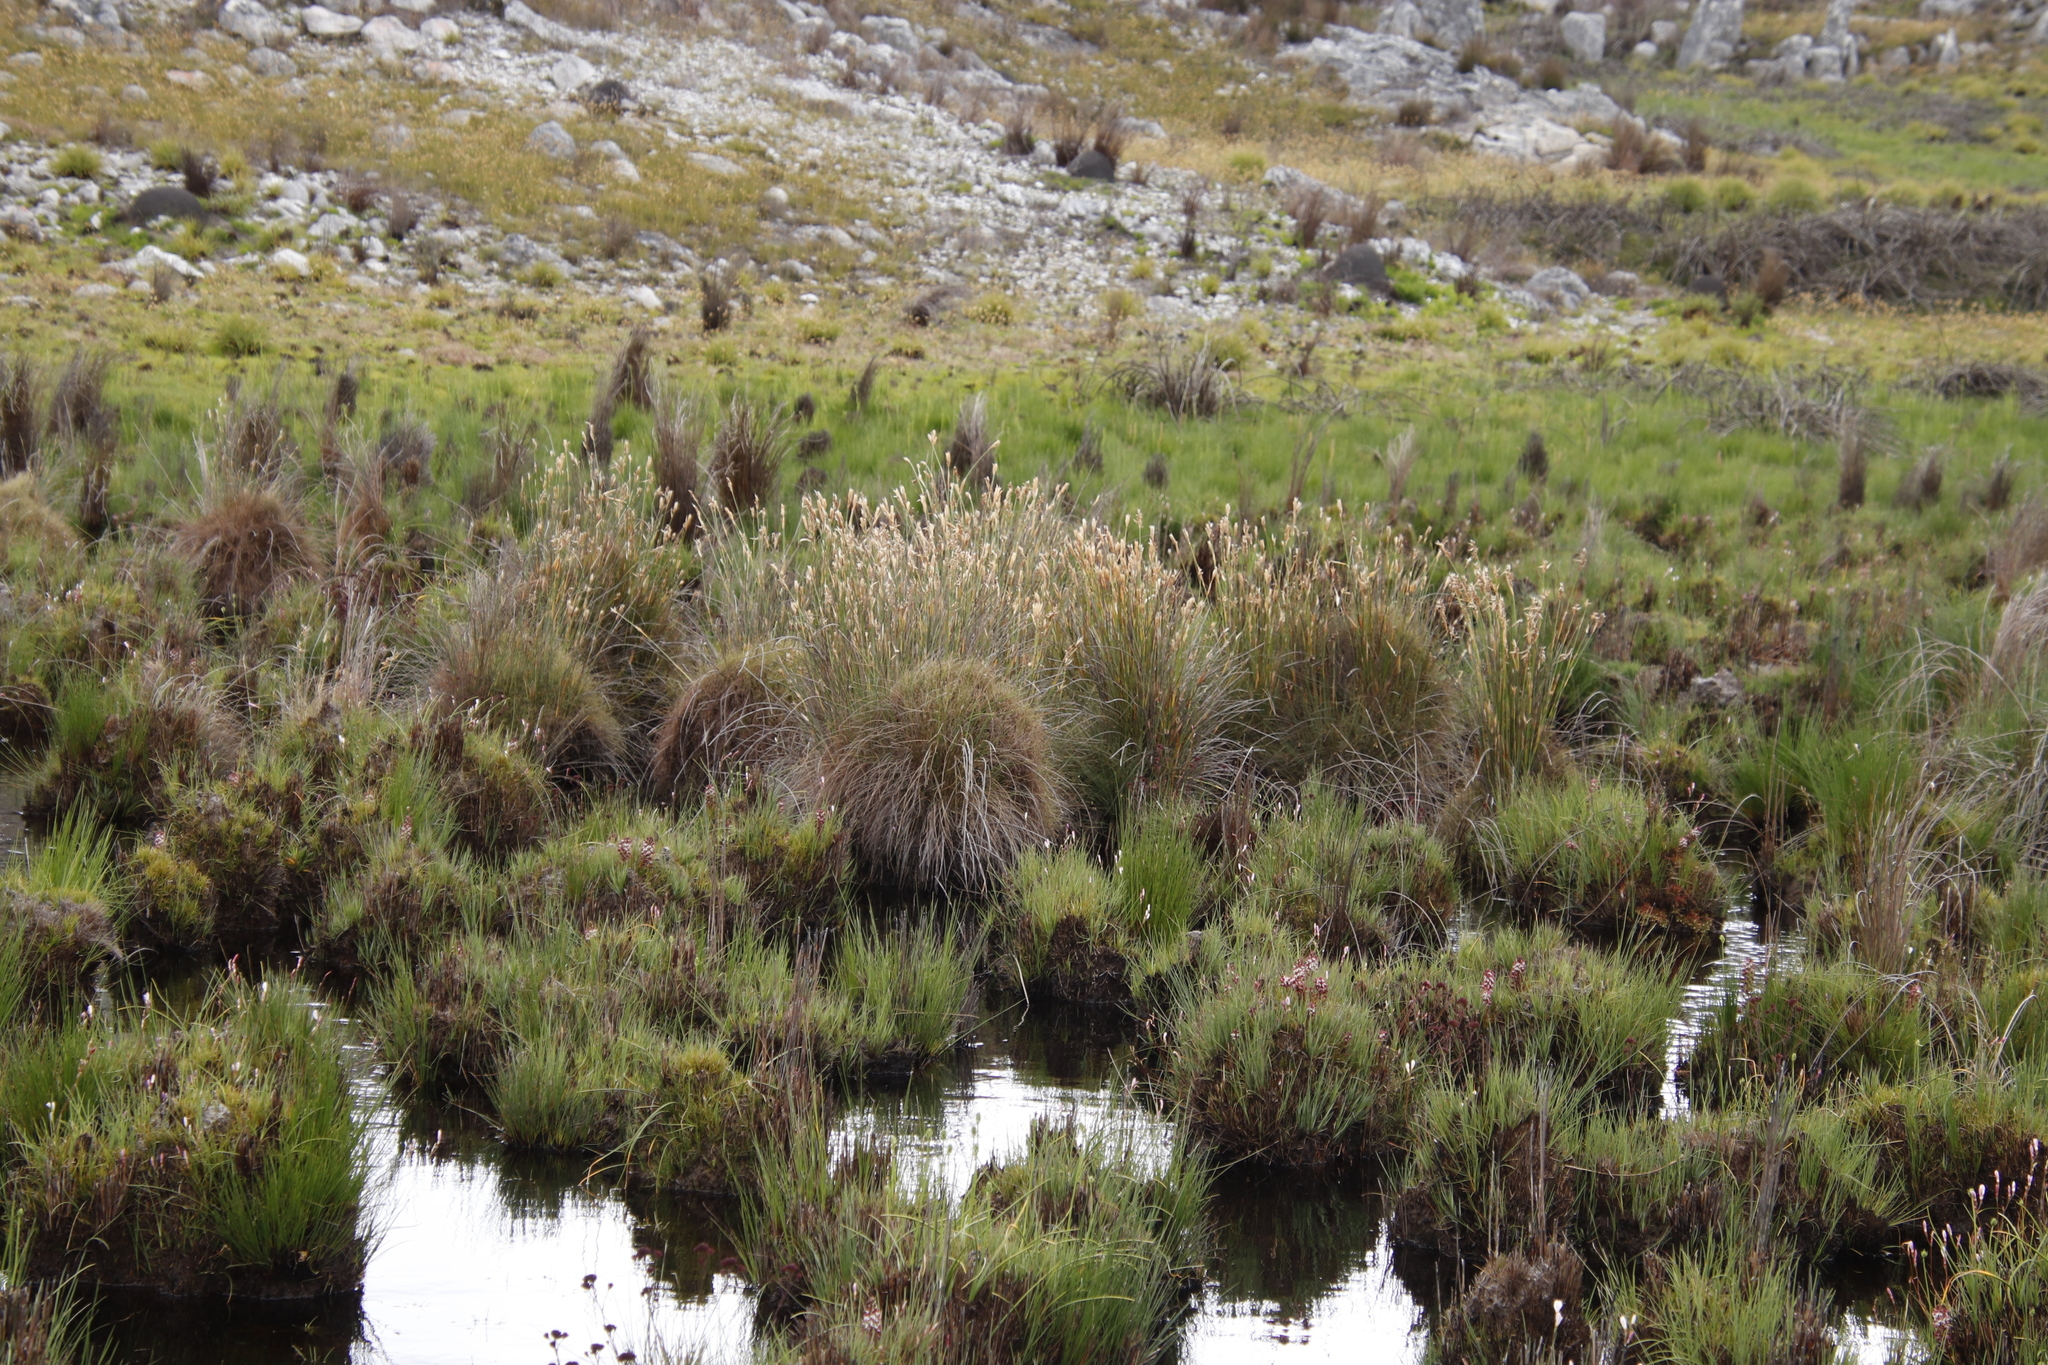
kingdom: Plantae
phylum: Tracheophyta
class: Liliopsida
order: Poales
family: Restionaceae
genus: Elegia
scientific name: Elegia mucronata
